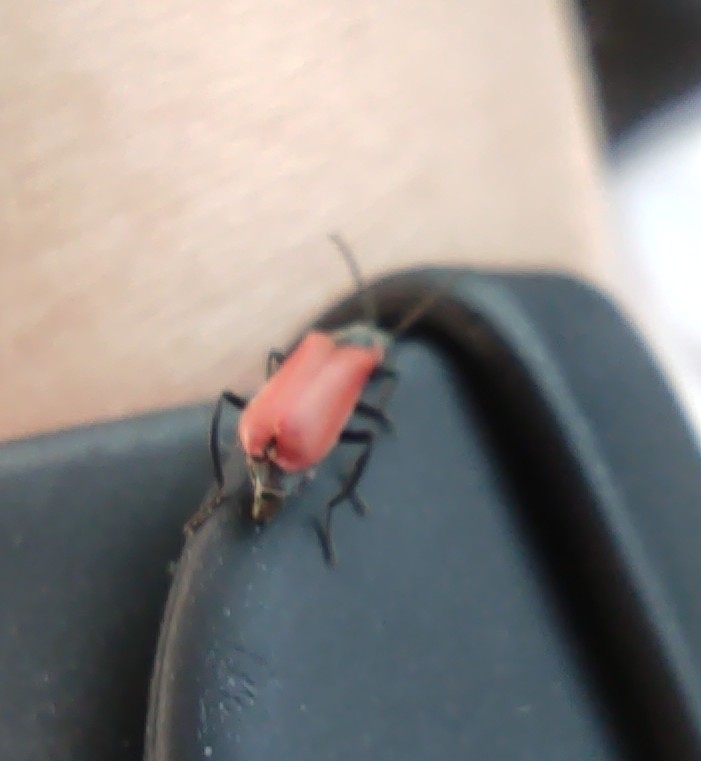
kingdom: Animalia
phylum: Arthropoda
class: Insecta
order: Coleoptera
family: Melyridae
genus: Anthocomus
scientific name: Anthocomus rufus
